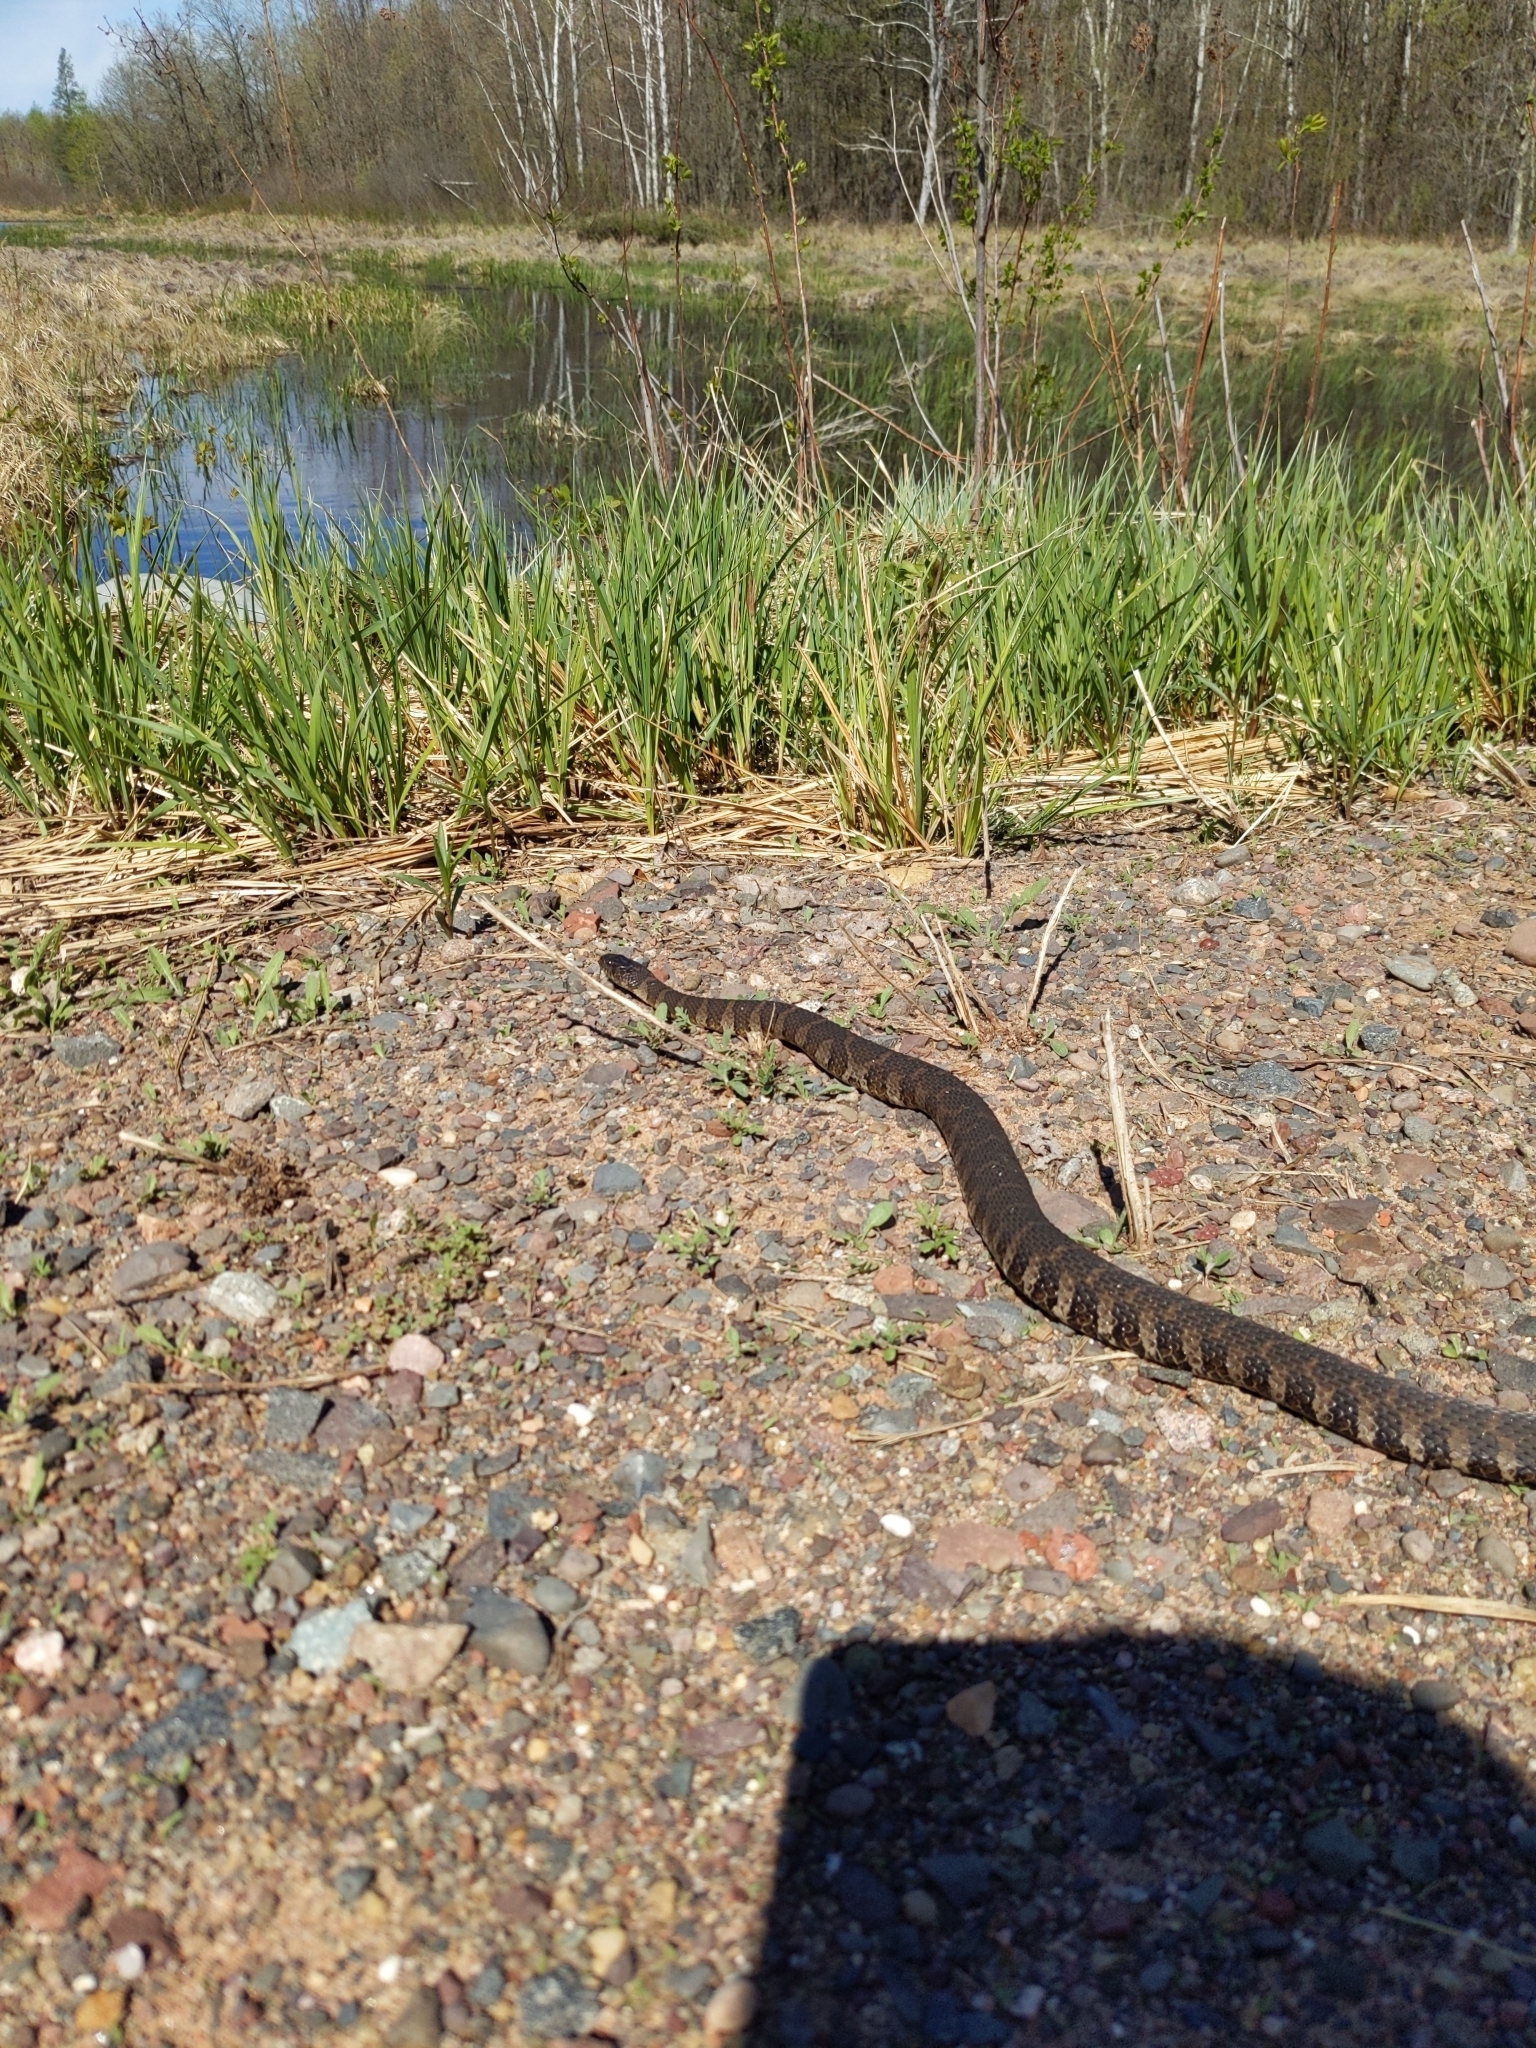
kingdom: Animalia
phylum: Chordata
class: Squamata
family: Colubridae
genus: Nerodia
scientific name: Nerodia sipedon
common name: Northern water snake
